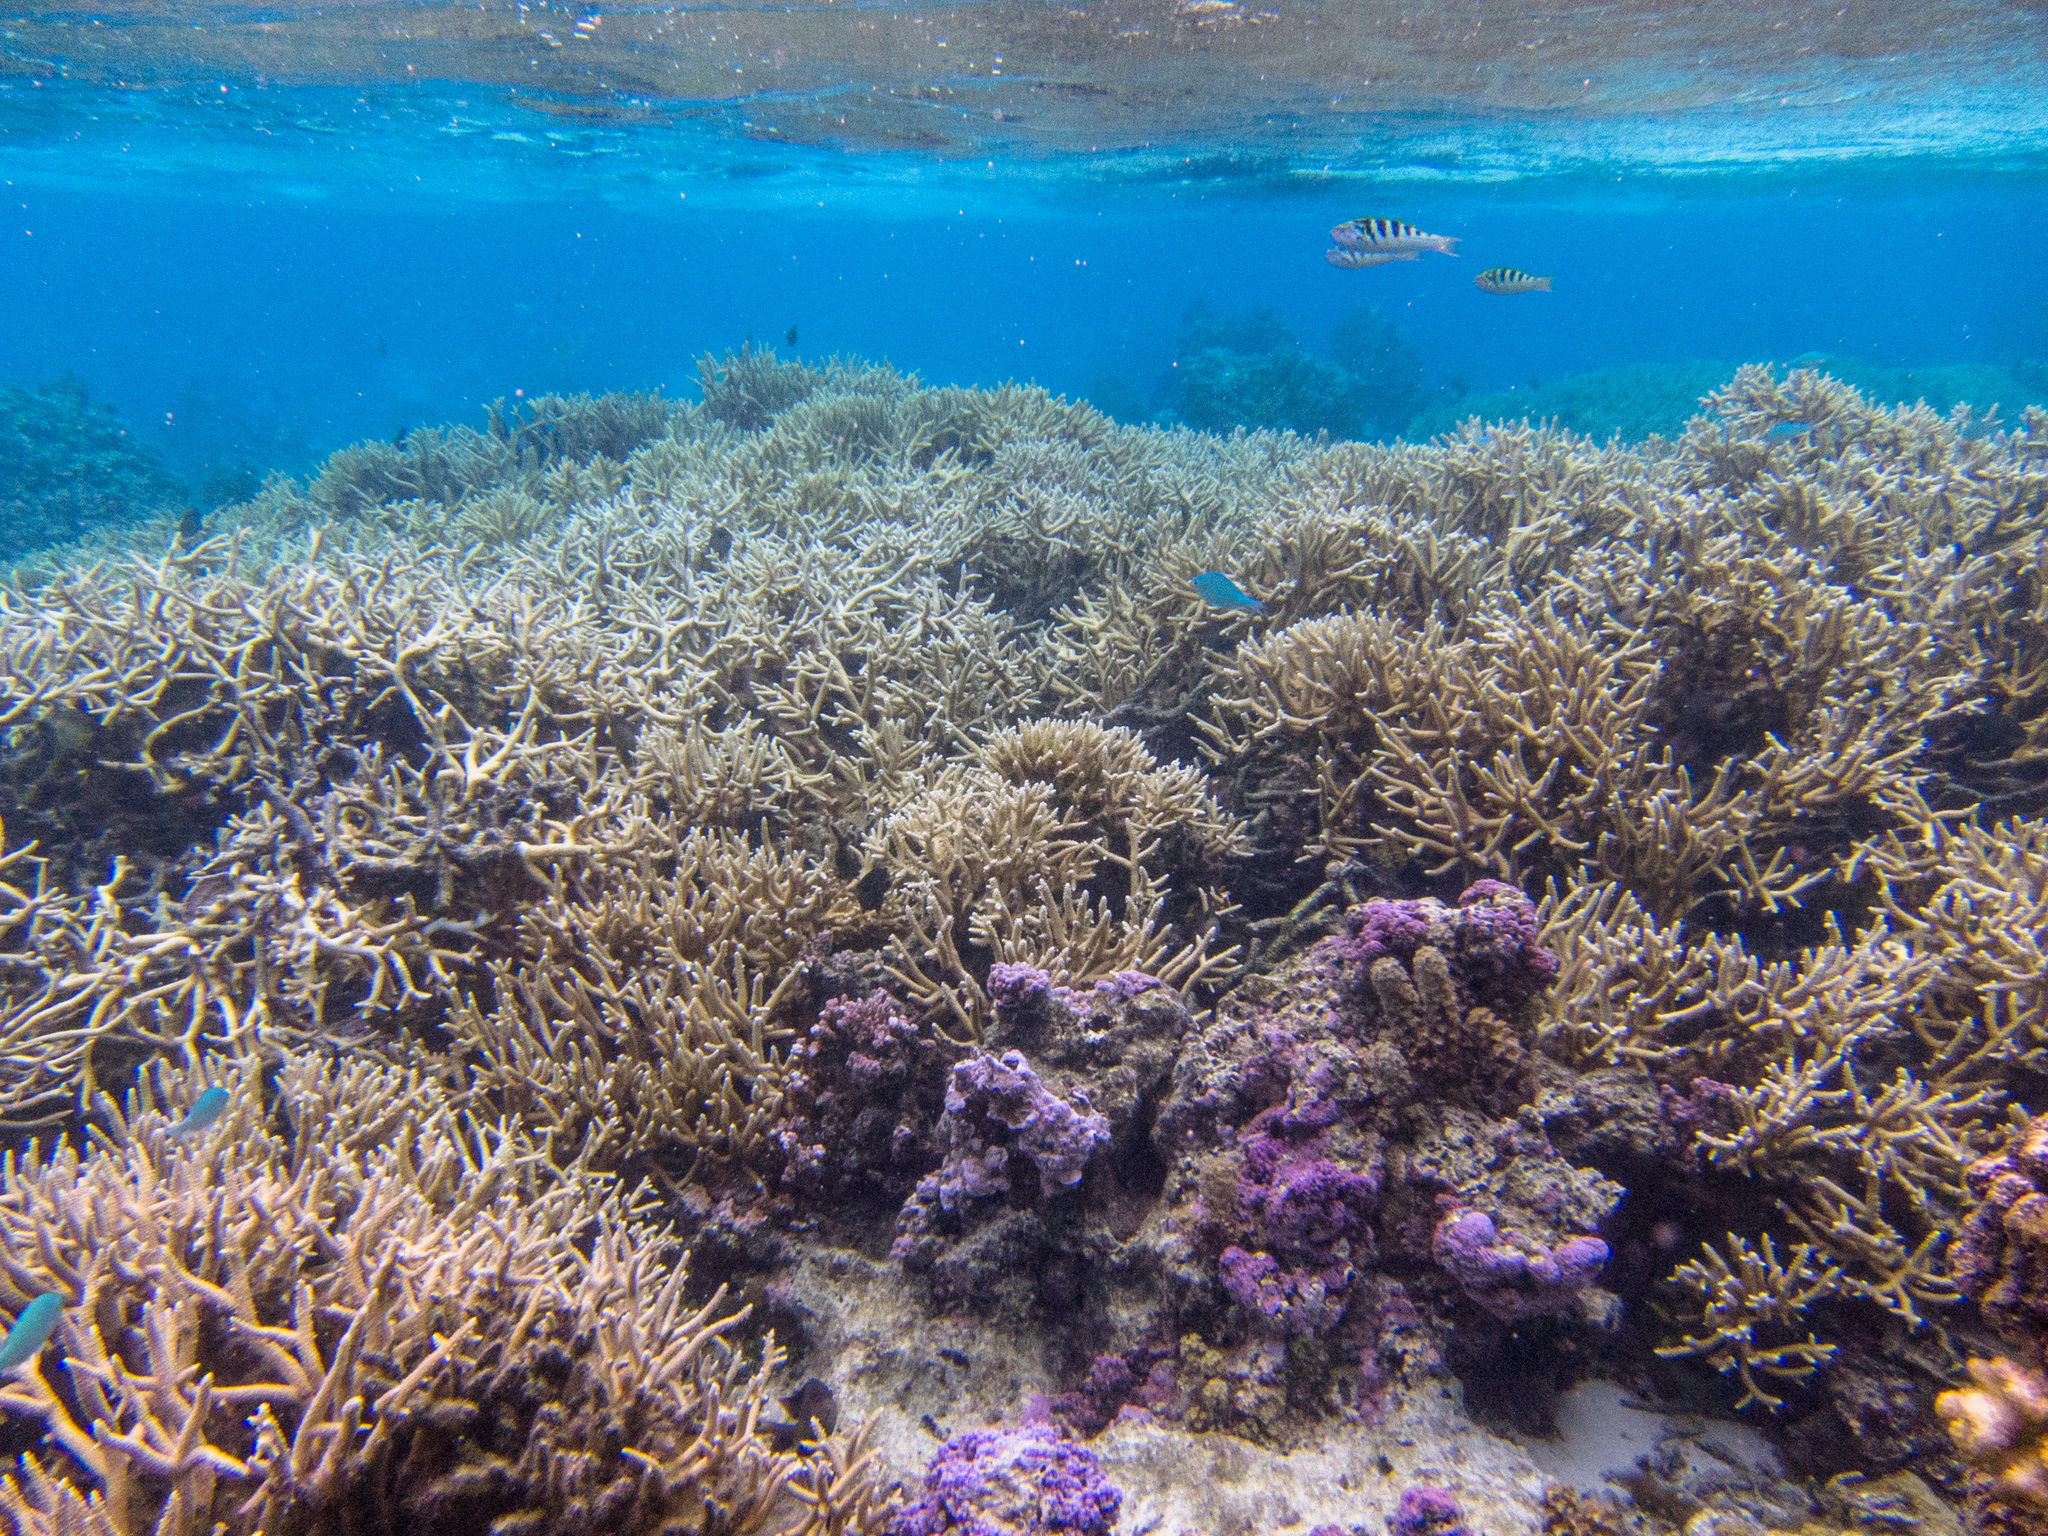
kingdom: Animalia
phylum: Chordata
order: Perciformes
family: Labridae
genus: Thalassoma
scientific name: Thalassoma hardwicke
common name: Sixbar wrasse
